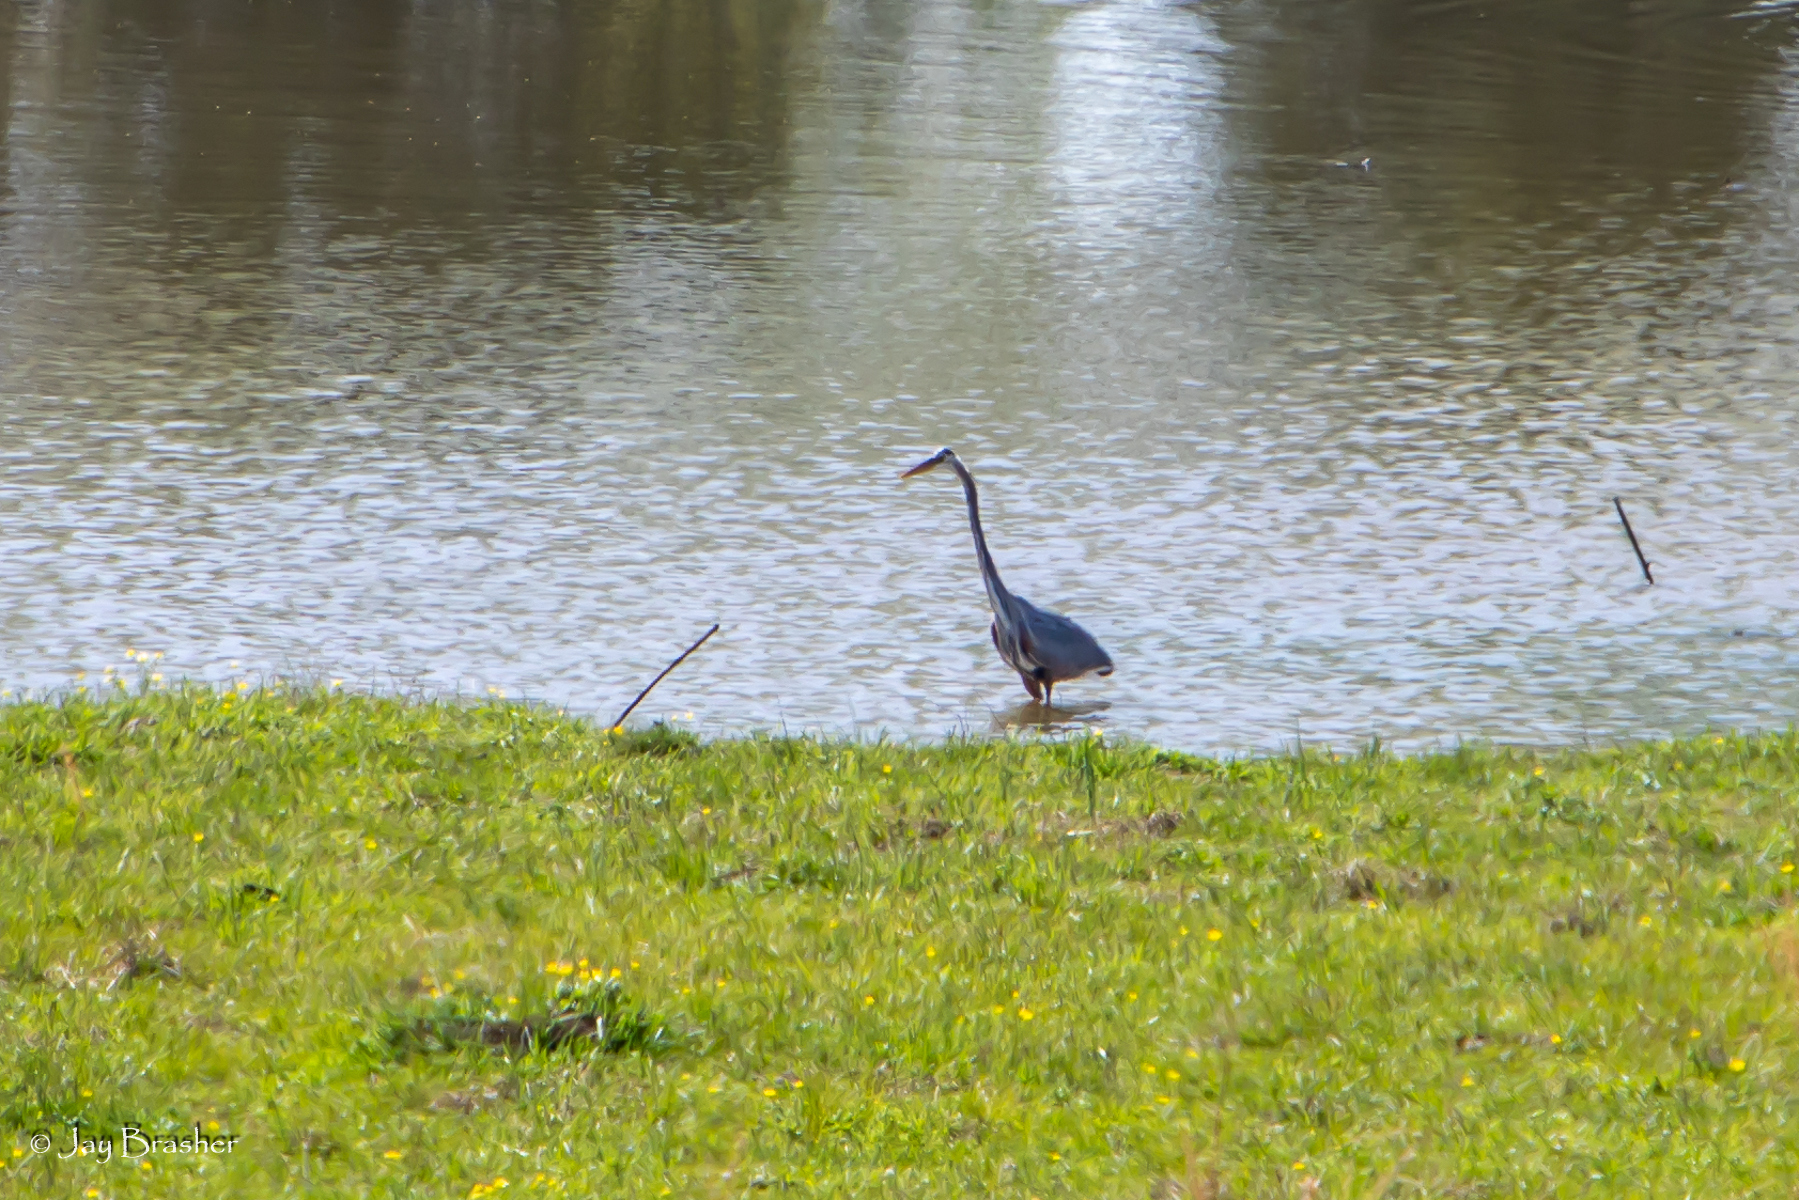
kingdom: Animalia
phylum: Chordata
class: Aves
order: Pelecaniformes
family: Ardeidae
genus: Ardea
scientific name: Ardea herodias
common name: Great blue heron
